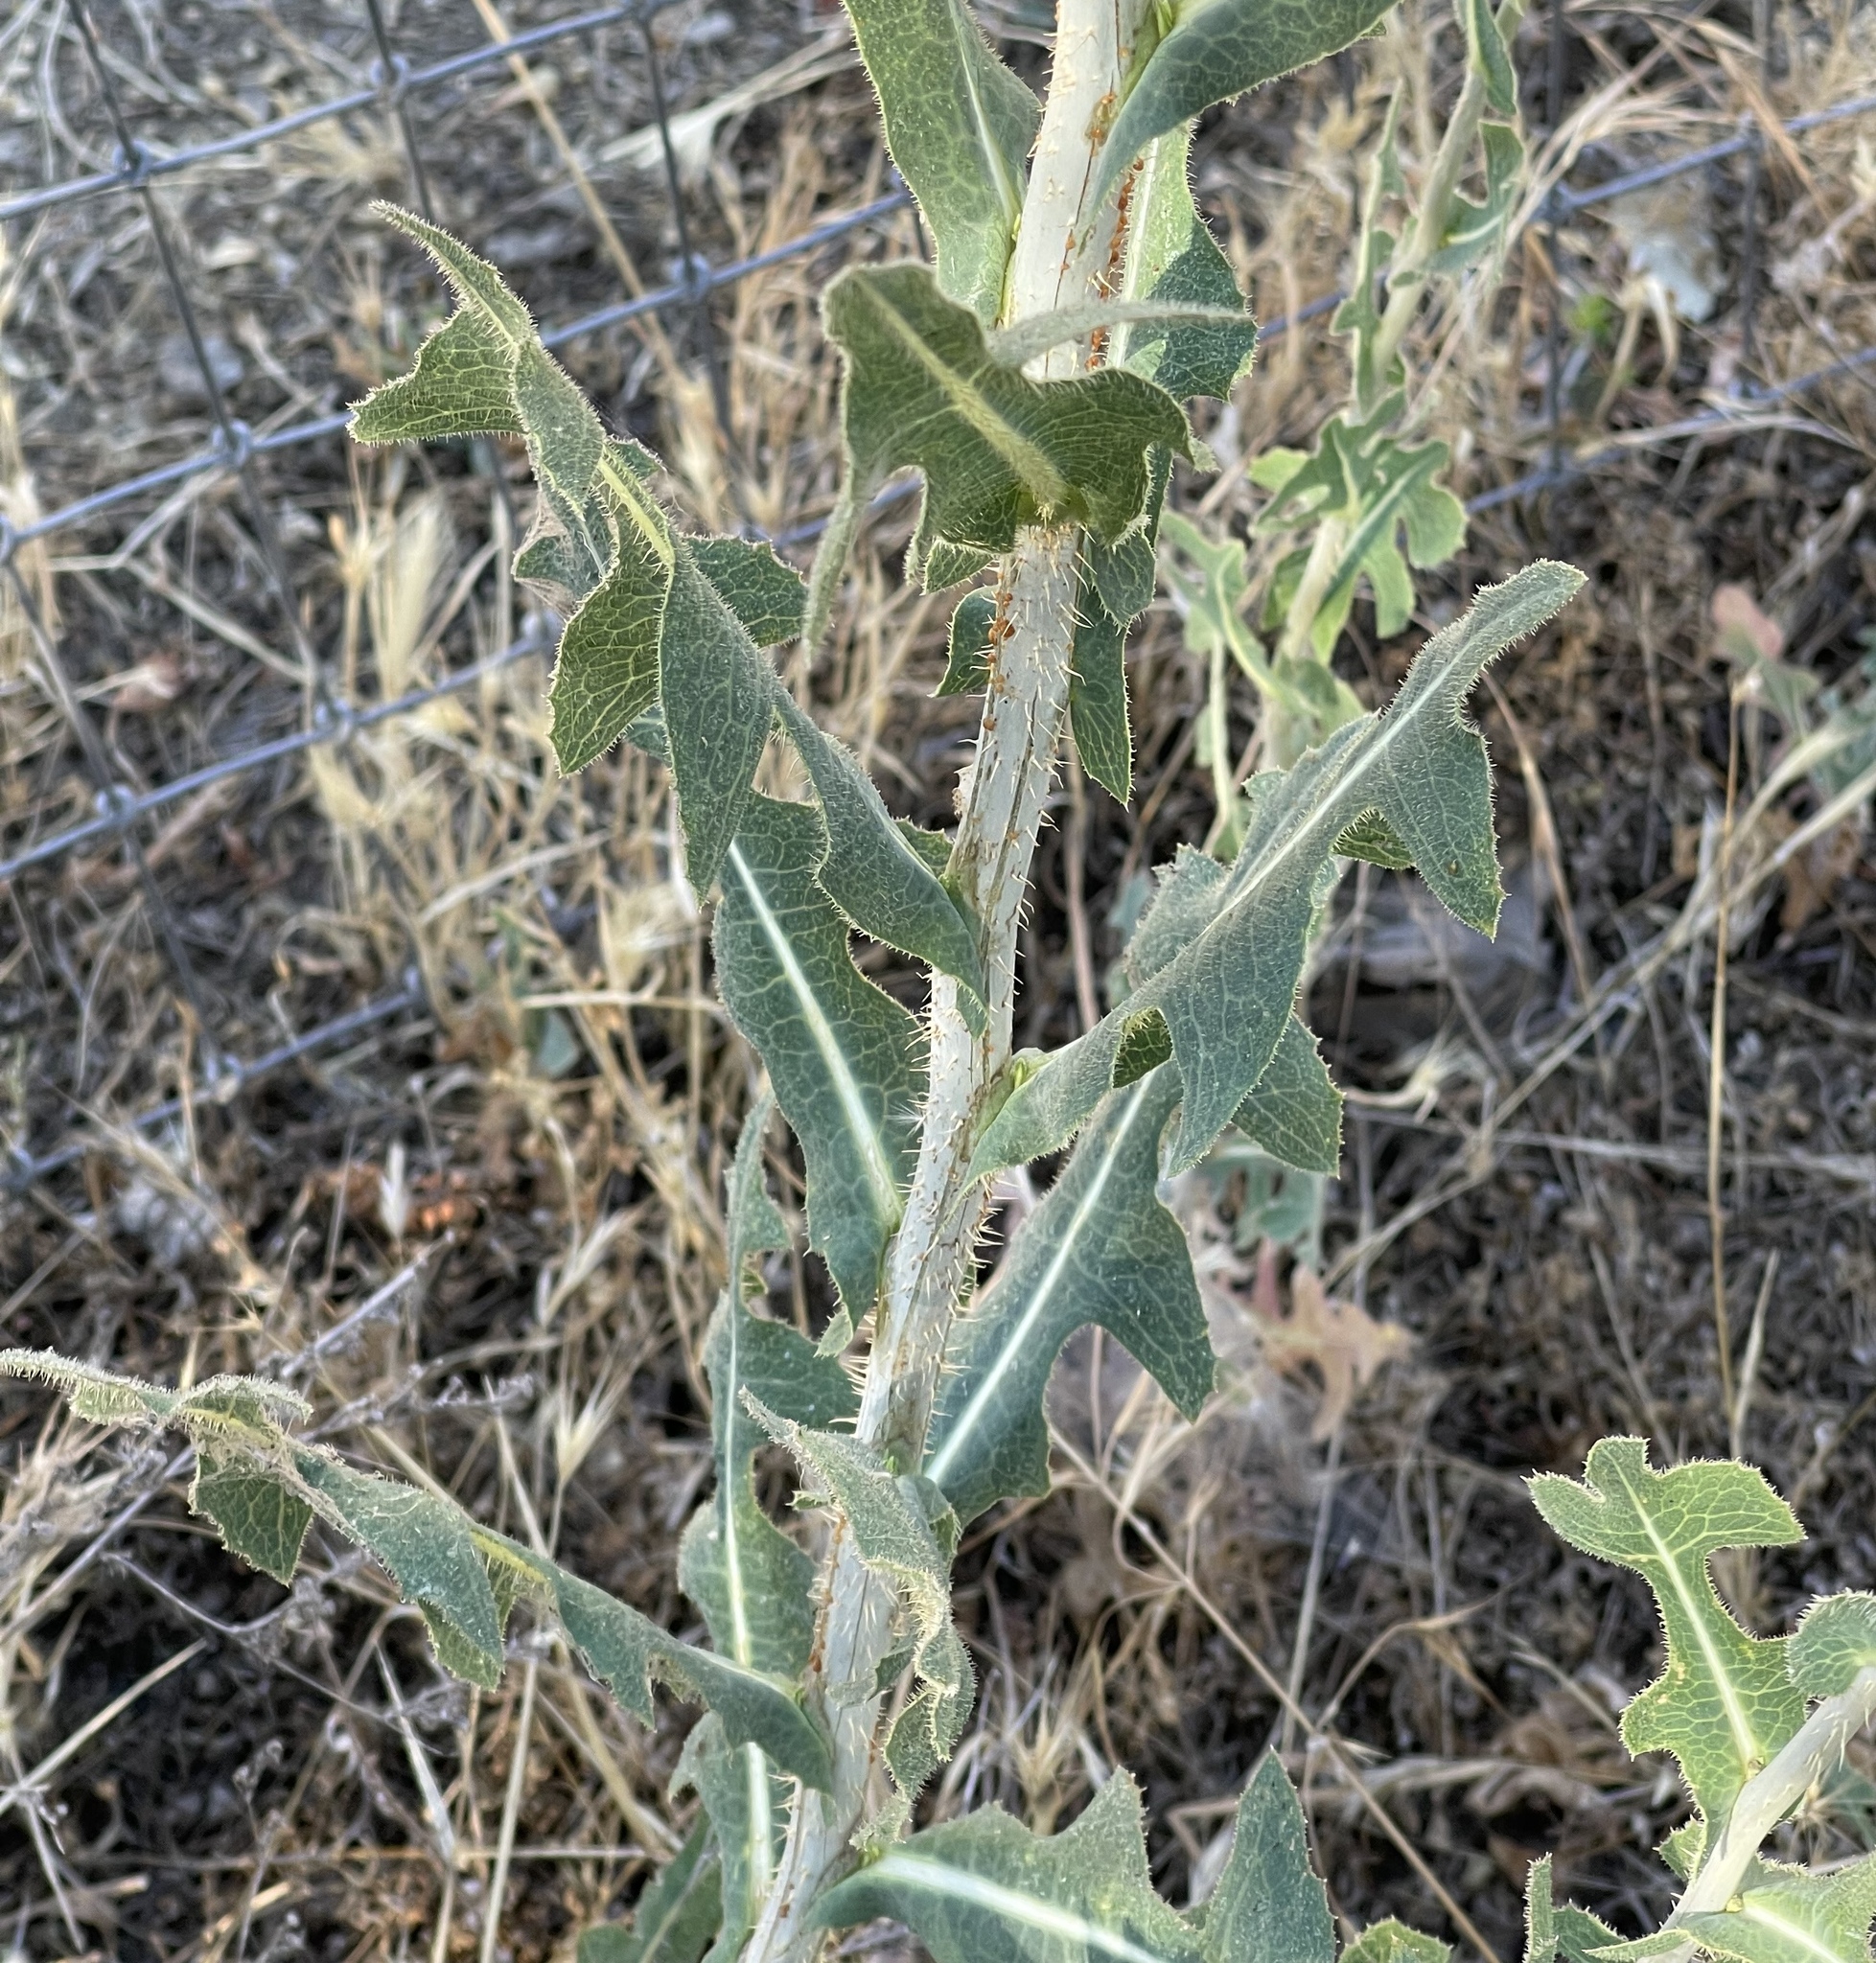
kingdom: Plantae
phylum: Tracheophyta
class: Magnoliopsida
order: Asterales
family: Asteraceae
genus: Lactuca
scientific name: Lactuca serriola
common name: Prickly lettuce
